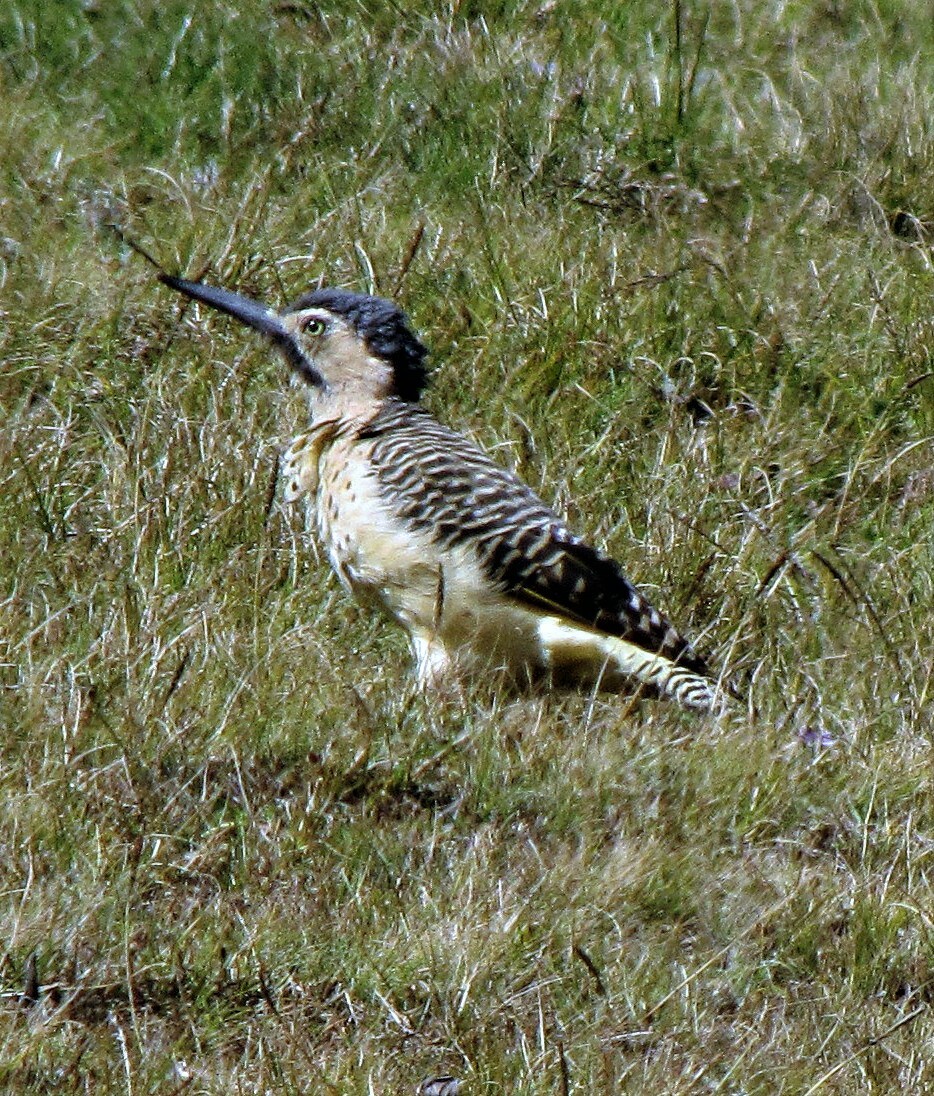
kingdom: Animalia
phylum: Chordata
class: Aves
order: Piciformes
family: Picidae
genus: Colaptes
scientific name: Colaptes rupicola
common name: Andean flicker
